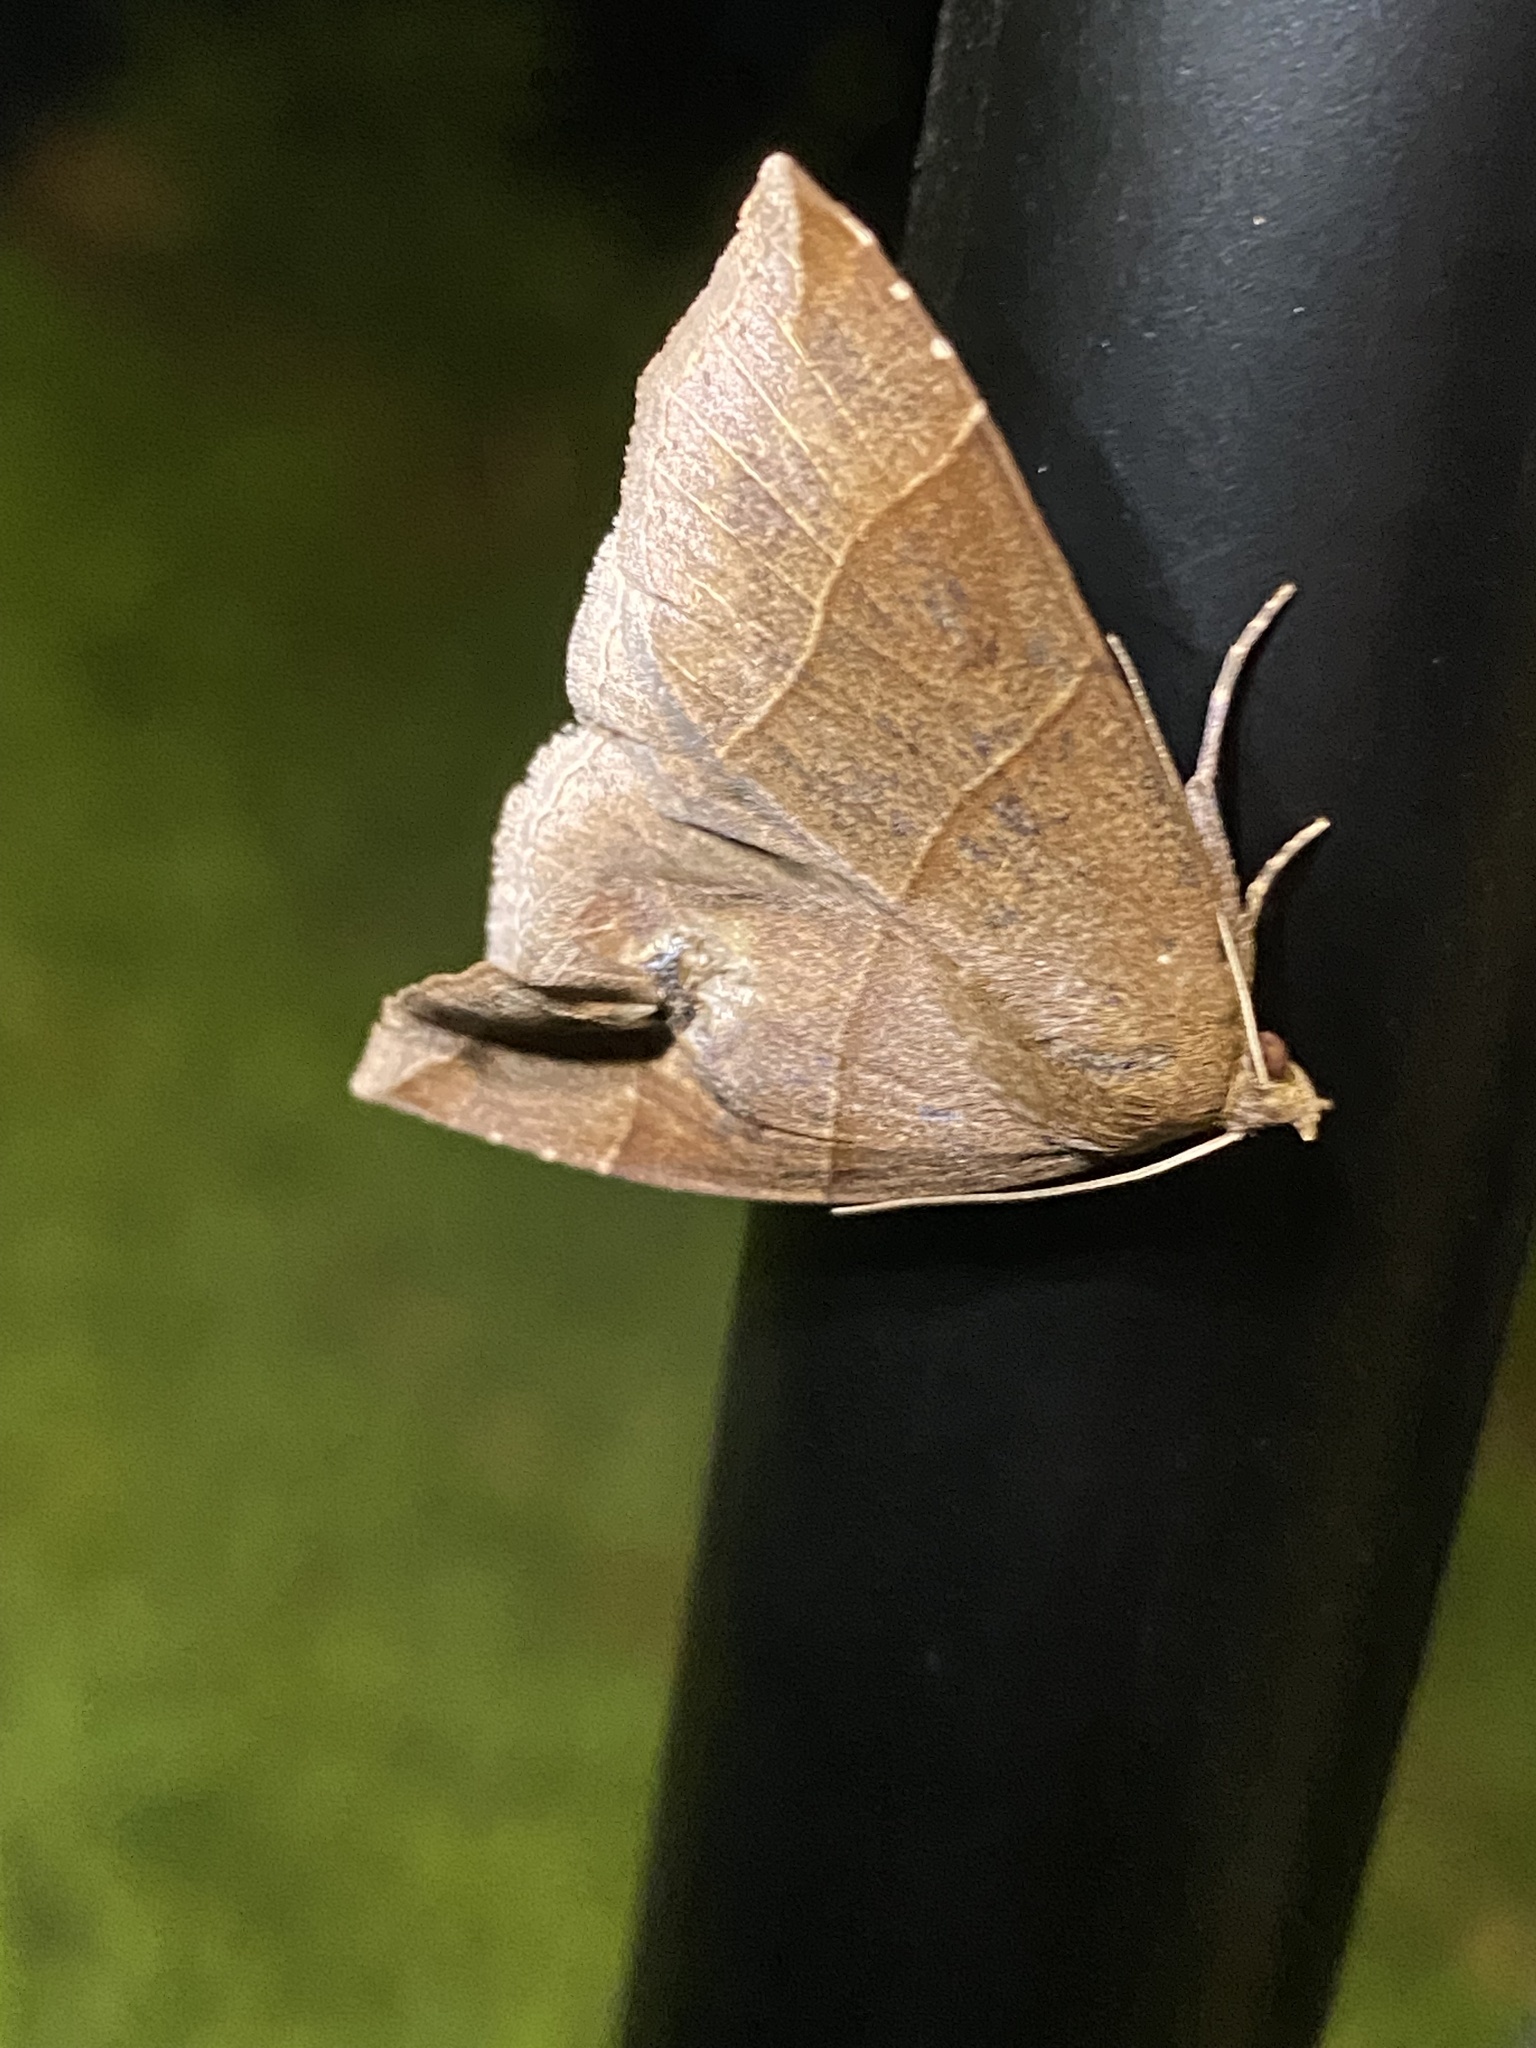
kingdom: Animalia
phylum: Arthropoda
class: Insecta
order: Lepidoptera
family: Erebidae
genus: Parallelia
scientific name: Parallelia bistriaris
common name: Maple looper moth
